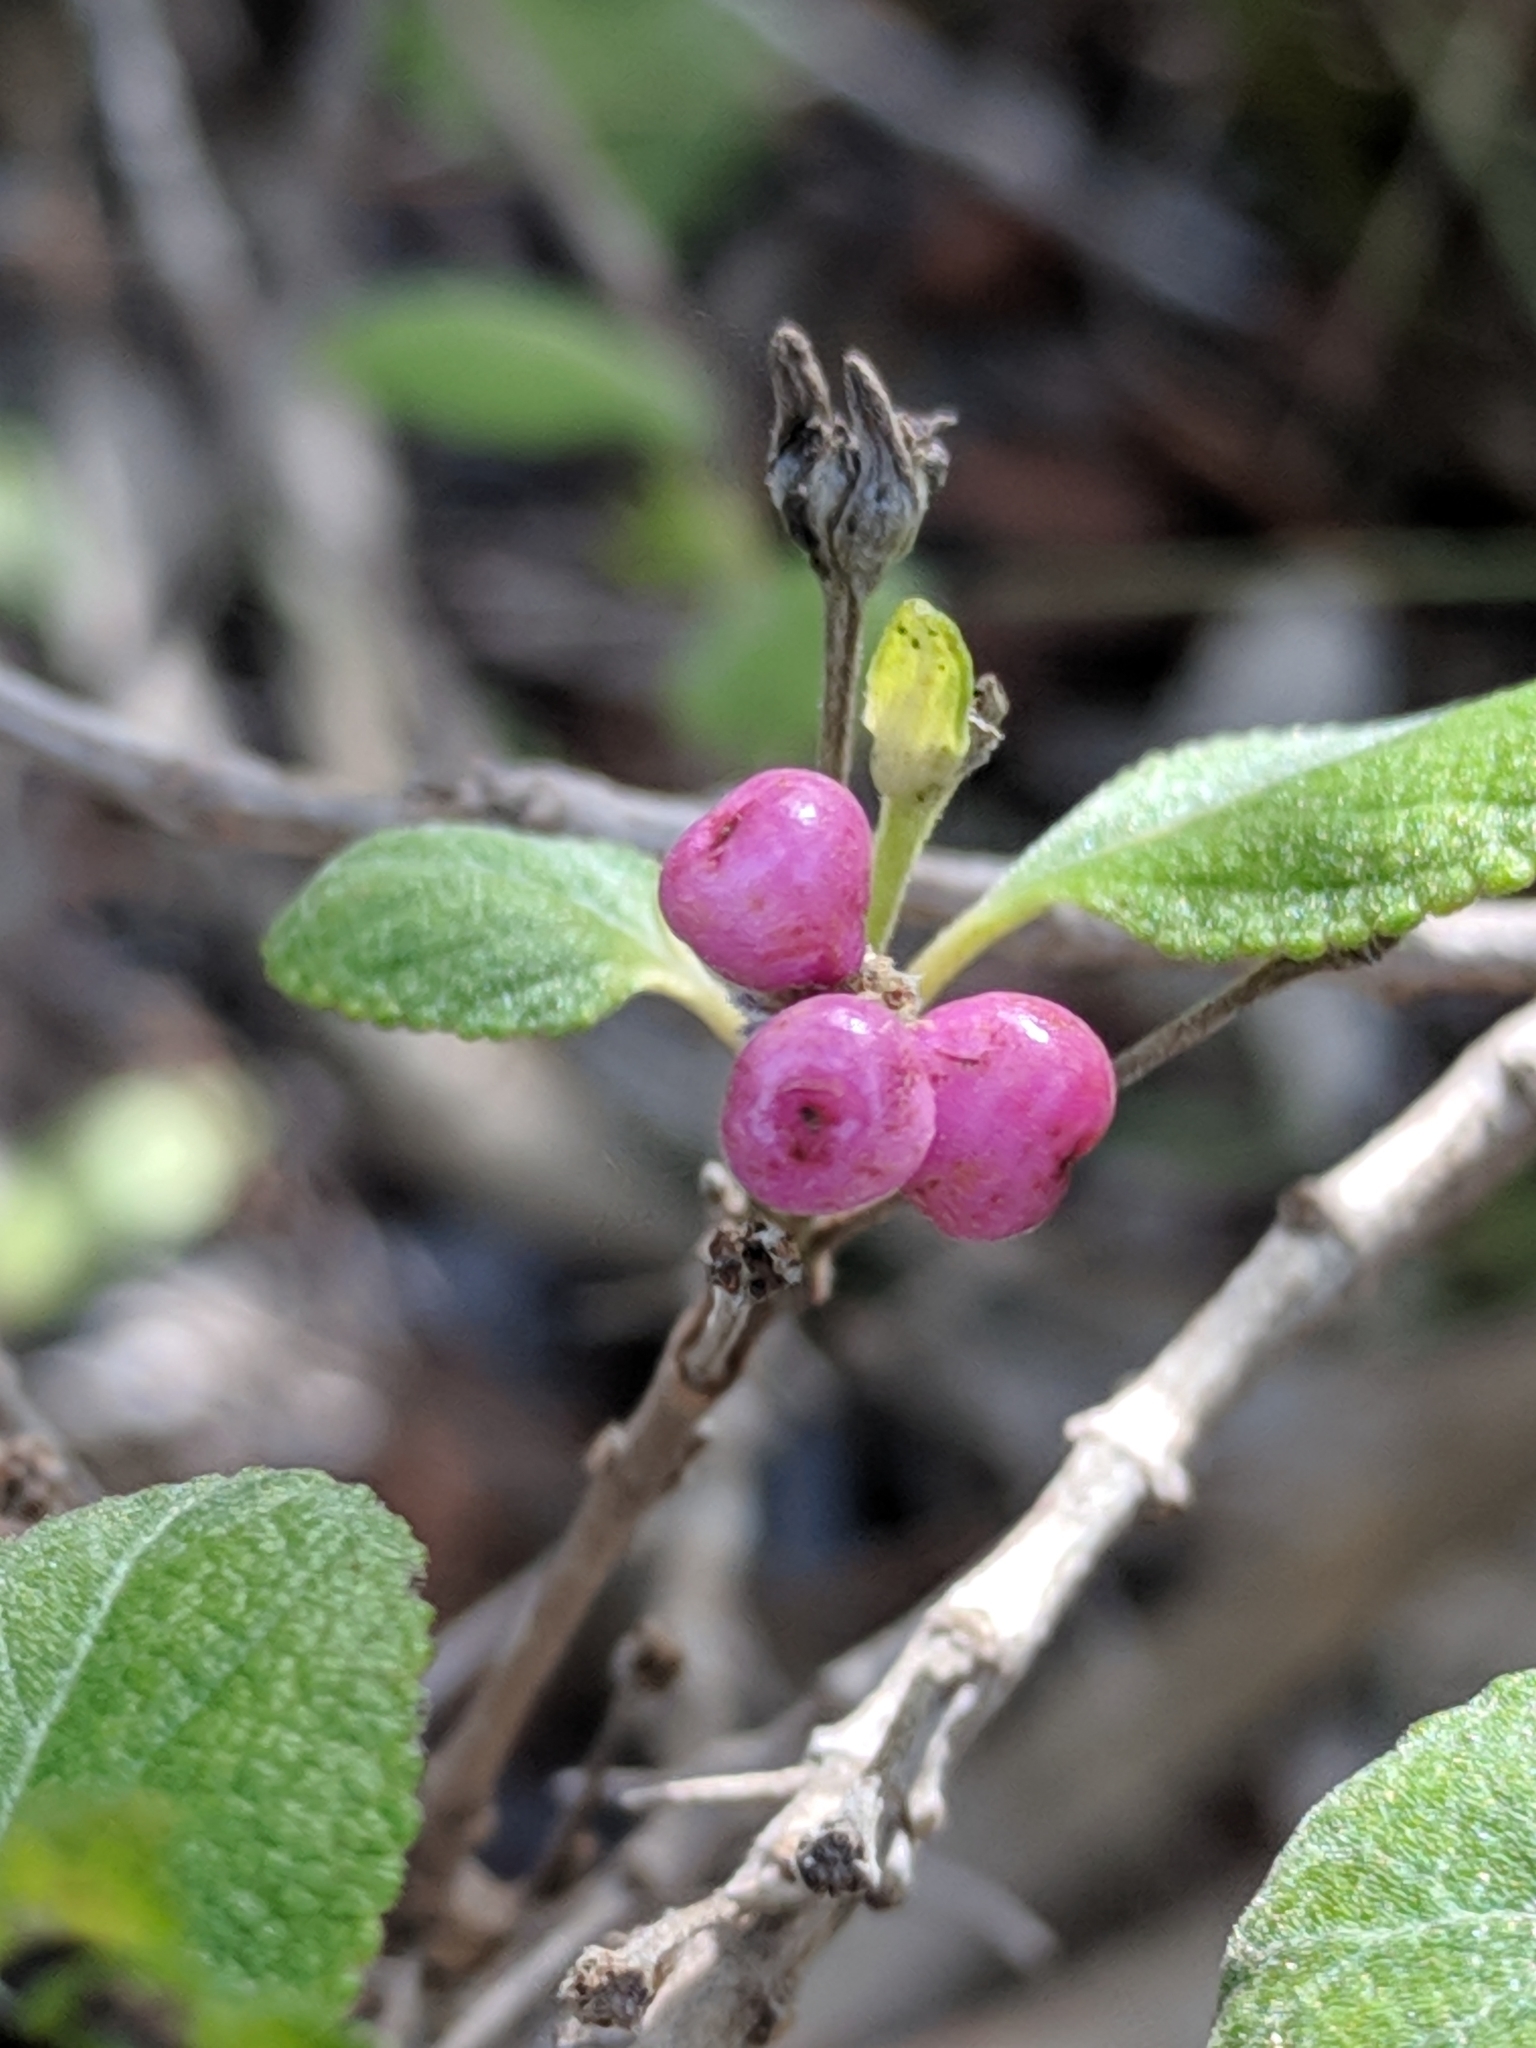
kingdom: Plantae
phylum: Tracheophyta
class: Magnoliopsida
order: Lamiales
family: Verbenaceae
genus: Lantana
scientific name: Lantana involucrata
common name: Black sage
